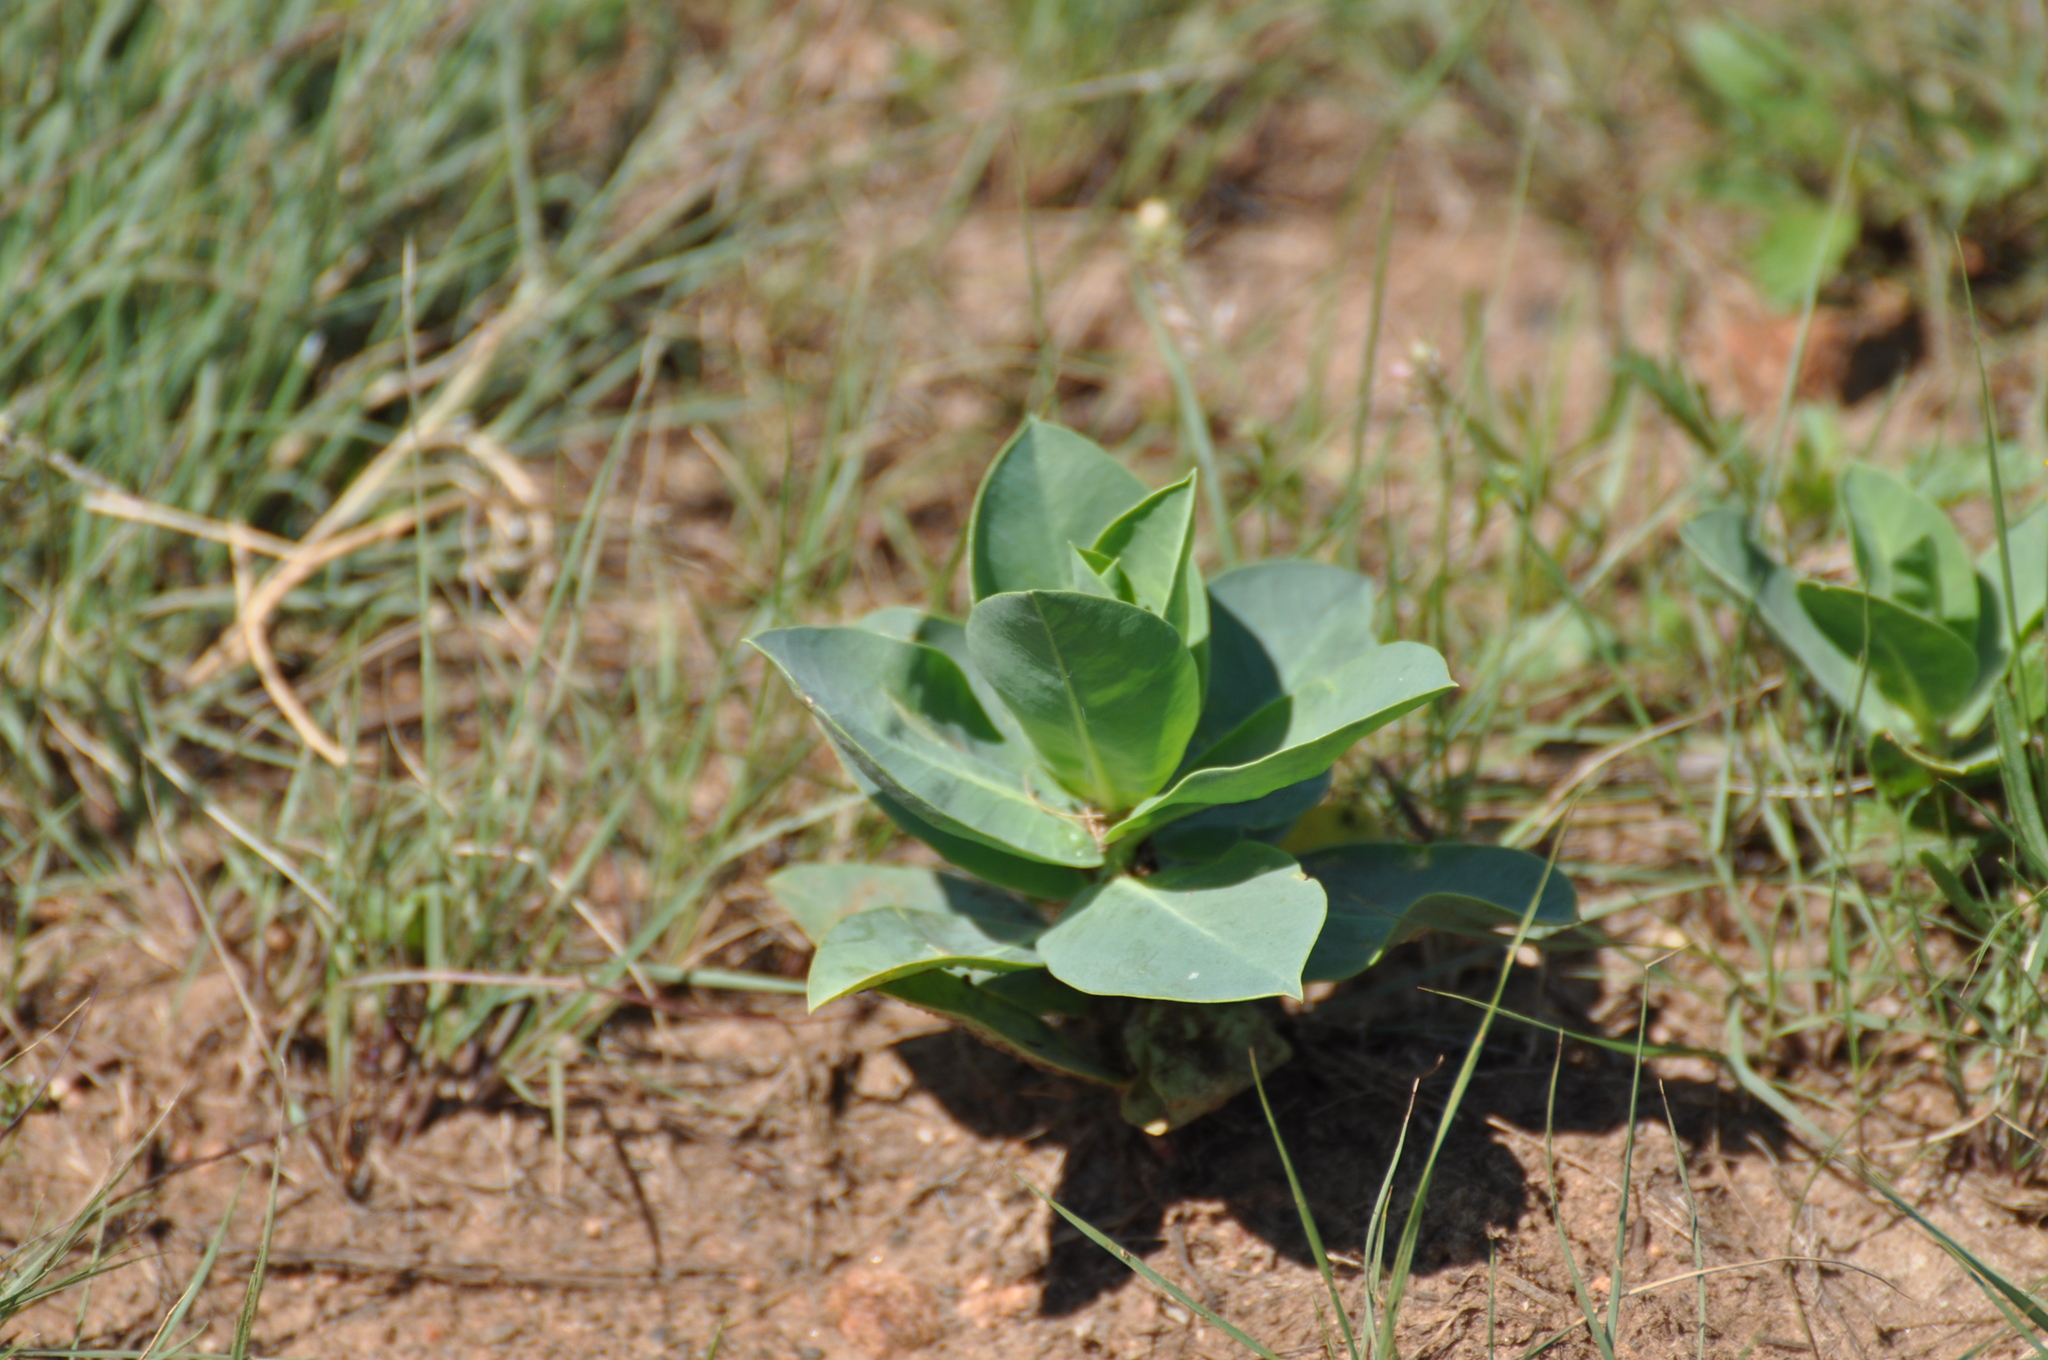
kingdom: Plantae
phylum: Tracheophyta
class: Magnoliopsida
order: Malpighiales
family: Euphorbiaceae
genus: Euphorbia
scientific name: Euphorbia marginata
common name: Ghostweed
